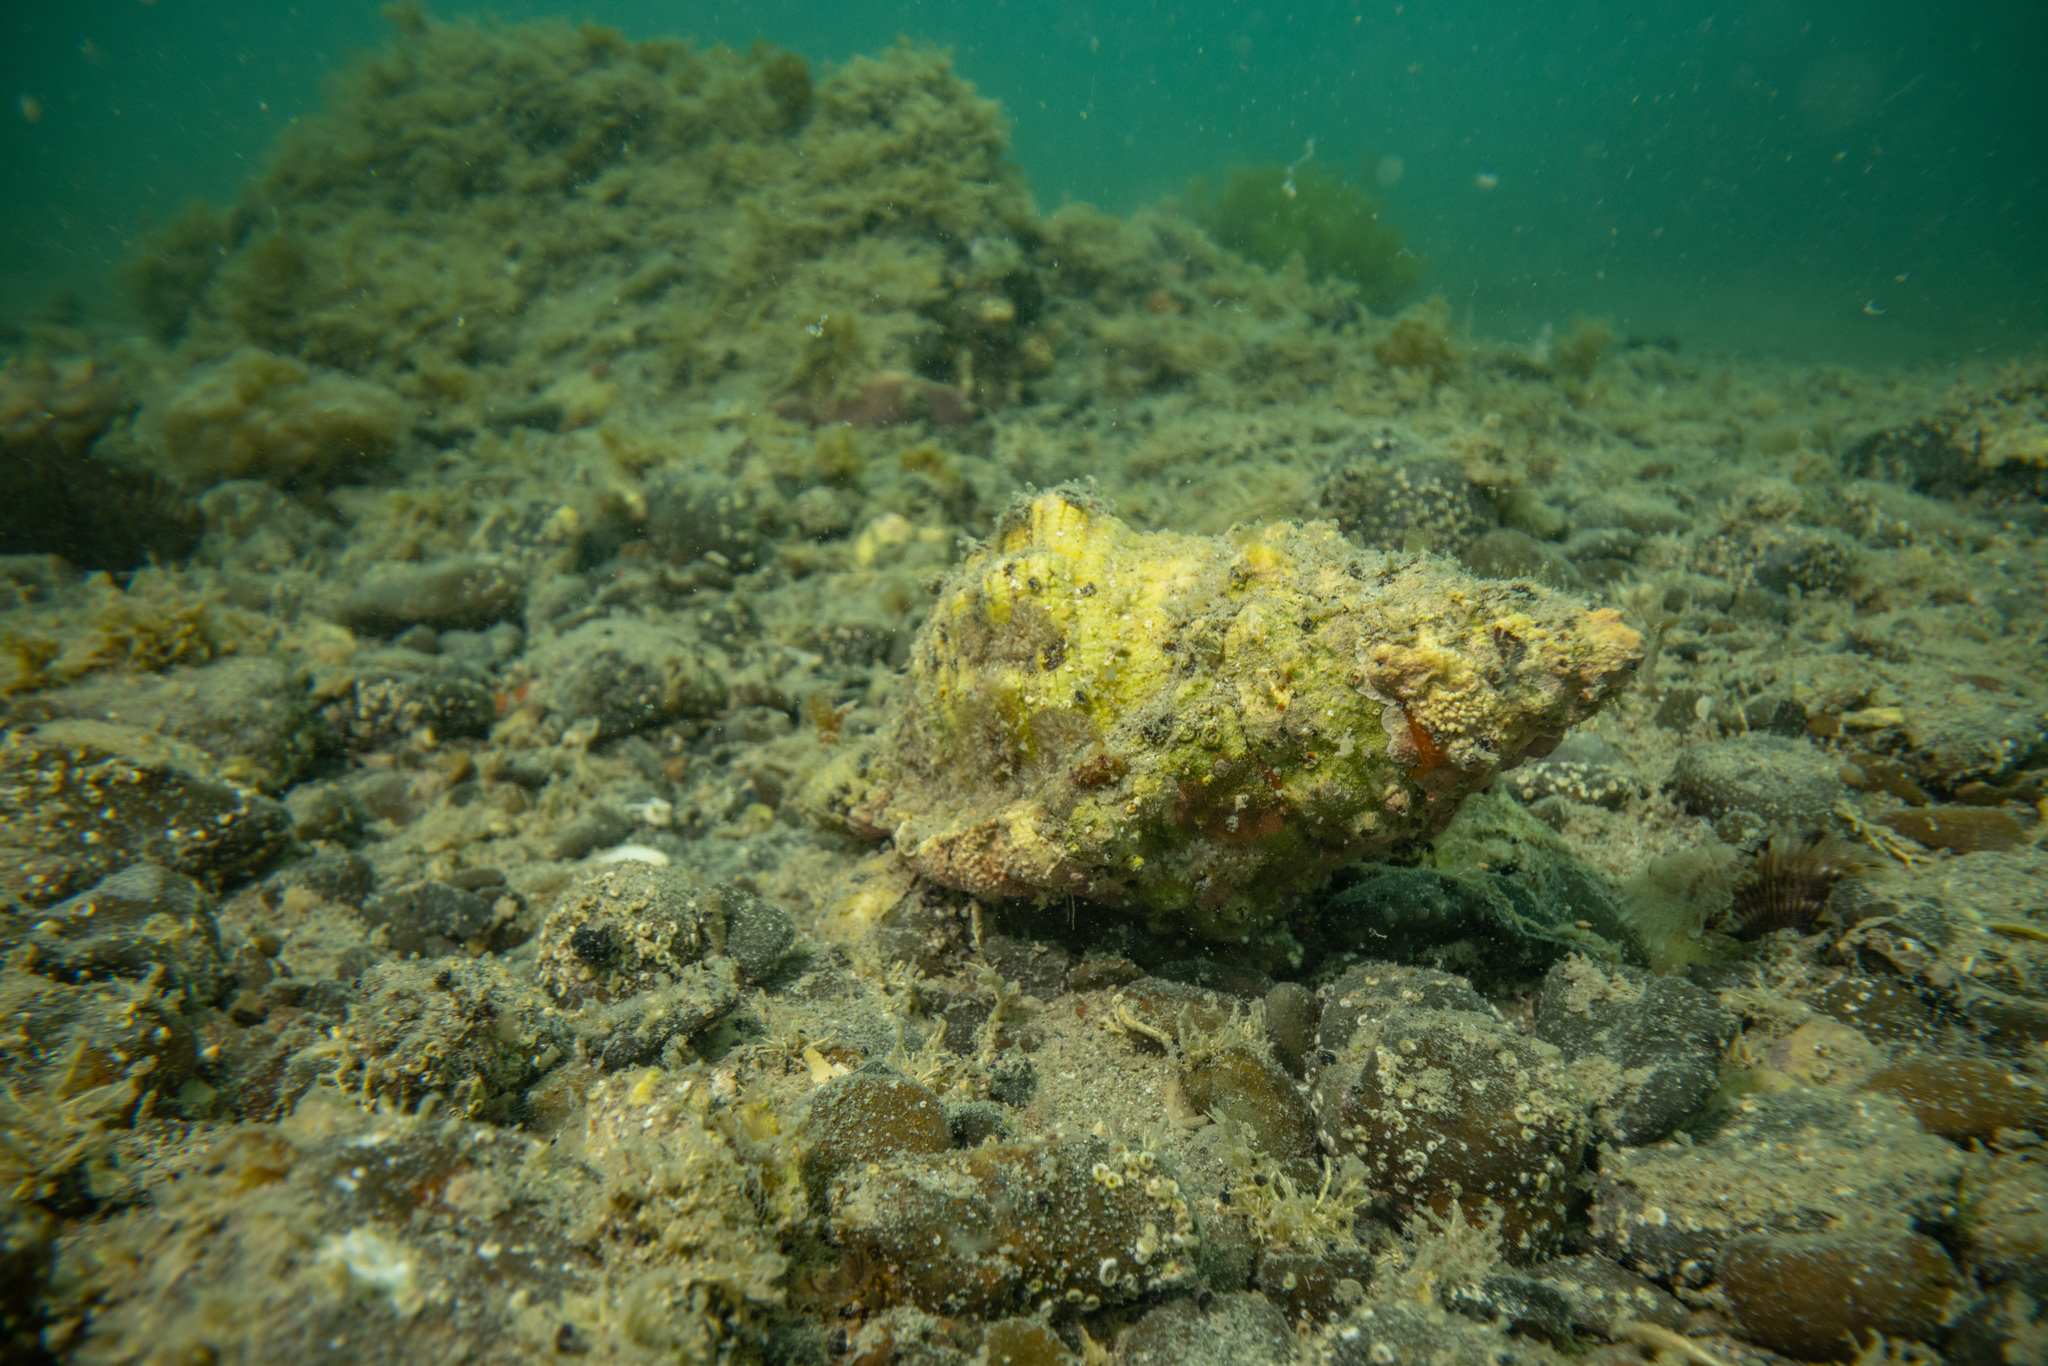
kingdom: Animalia
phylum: Mollusca
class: Gastropoda
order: Littorinimorpha
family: Cymatiidae
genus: Cabestana
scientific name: Cabestana spengleri
